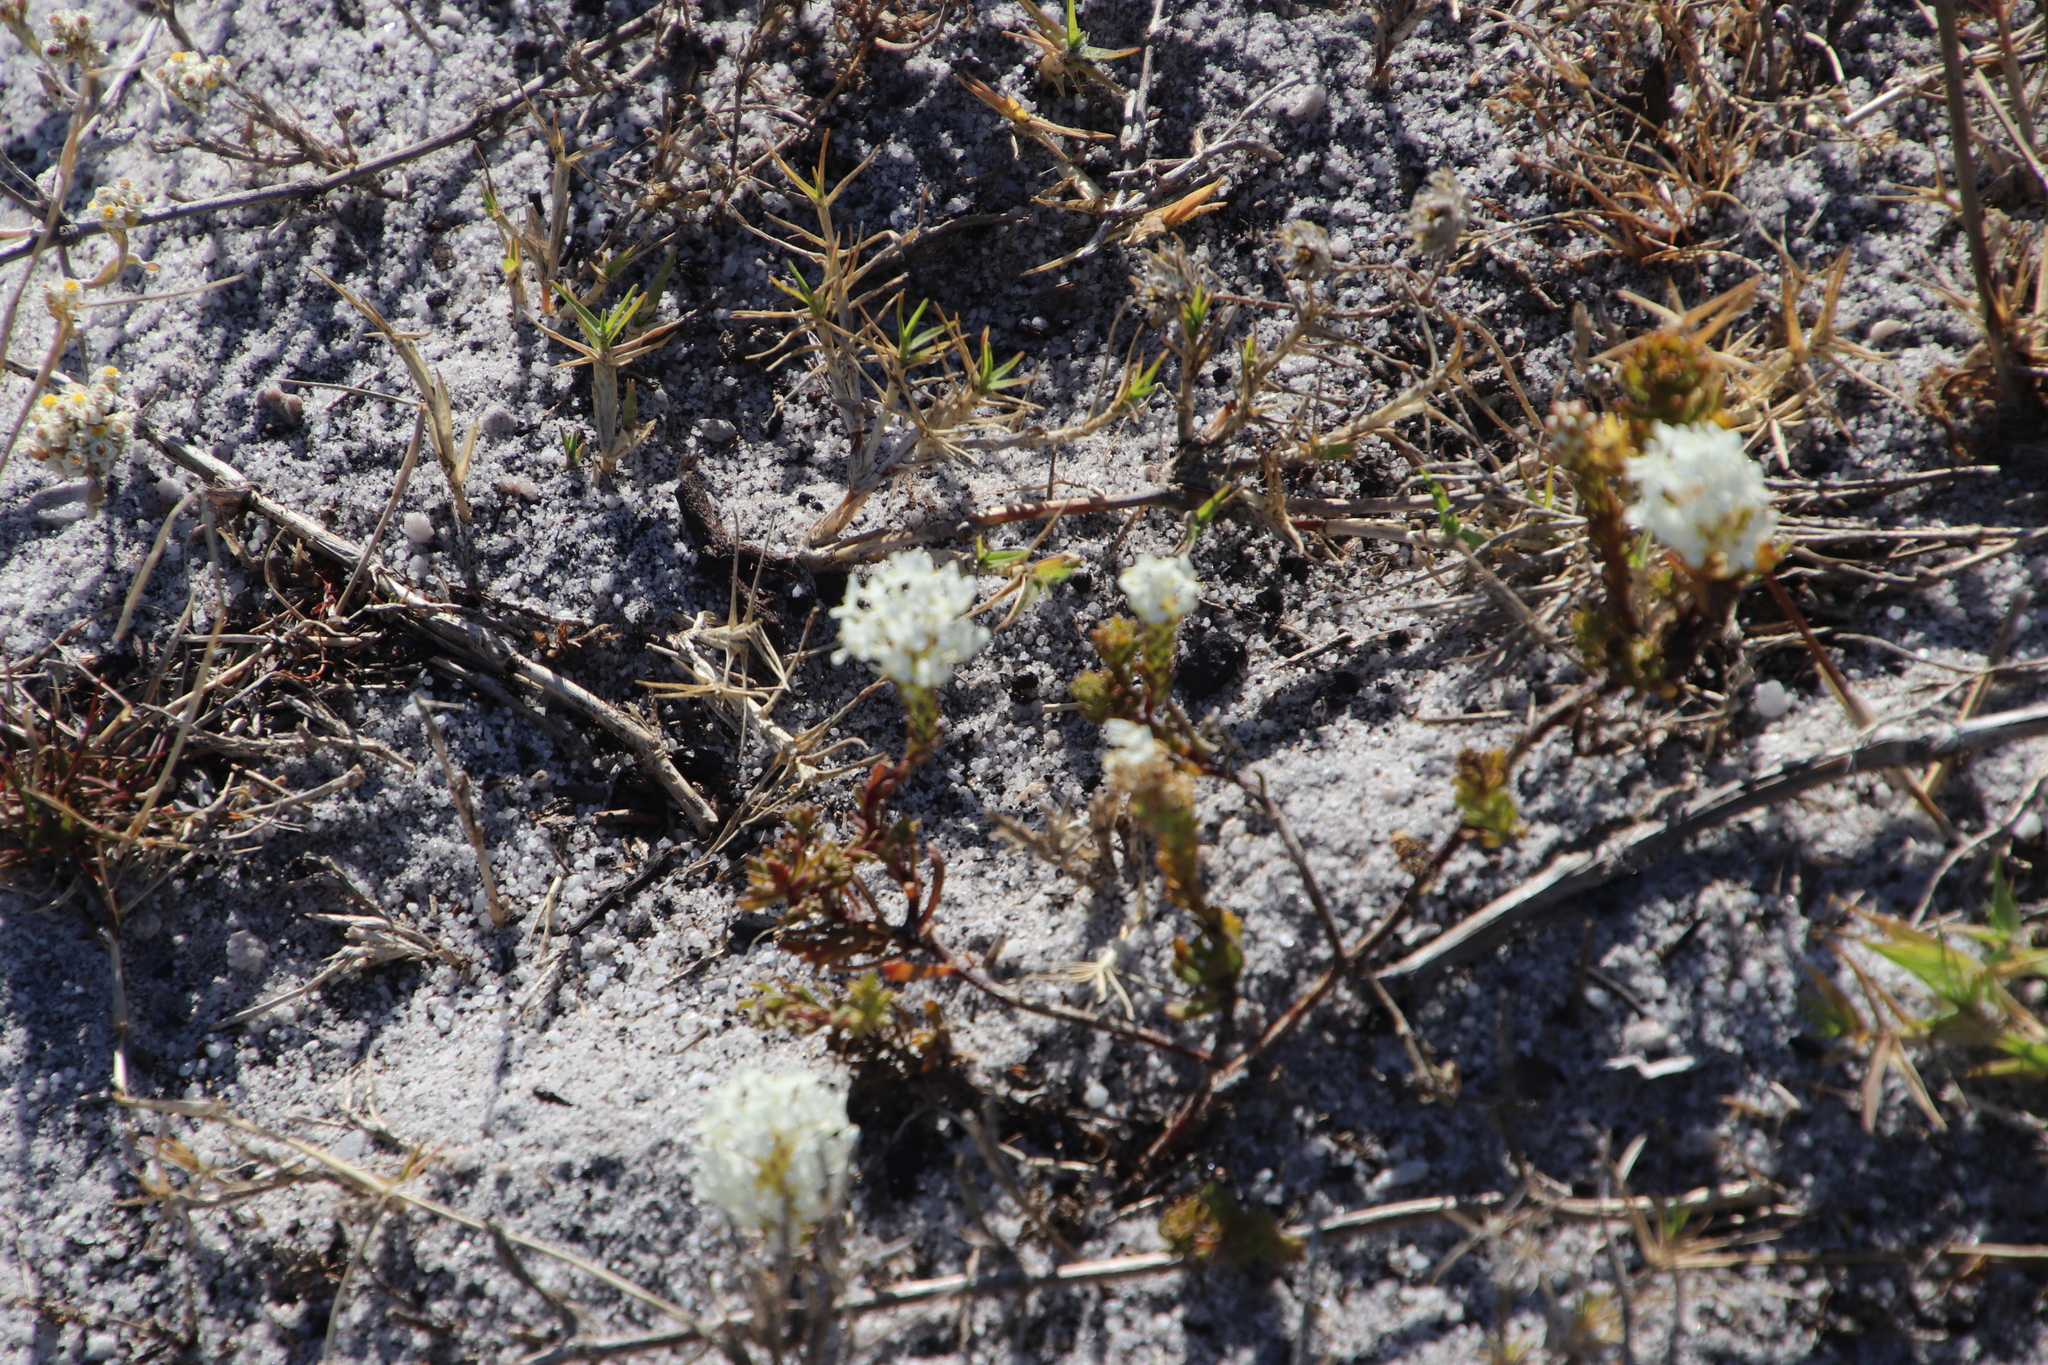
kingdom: Plantae
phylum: Tracheophyta
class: Magnoliopsida
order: Lamiales
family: Scrophulariaceae
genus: Dischisma
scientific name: Dischisma ciliatum
